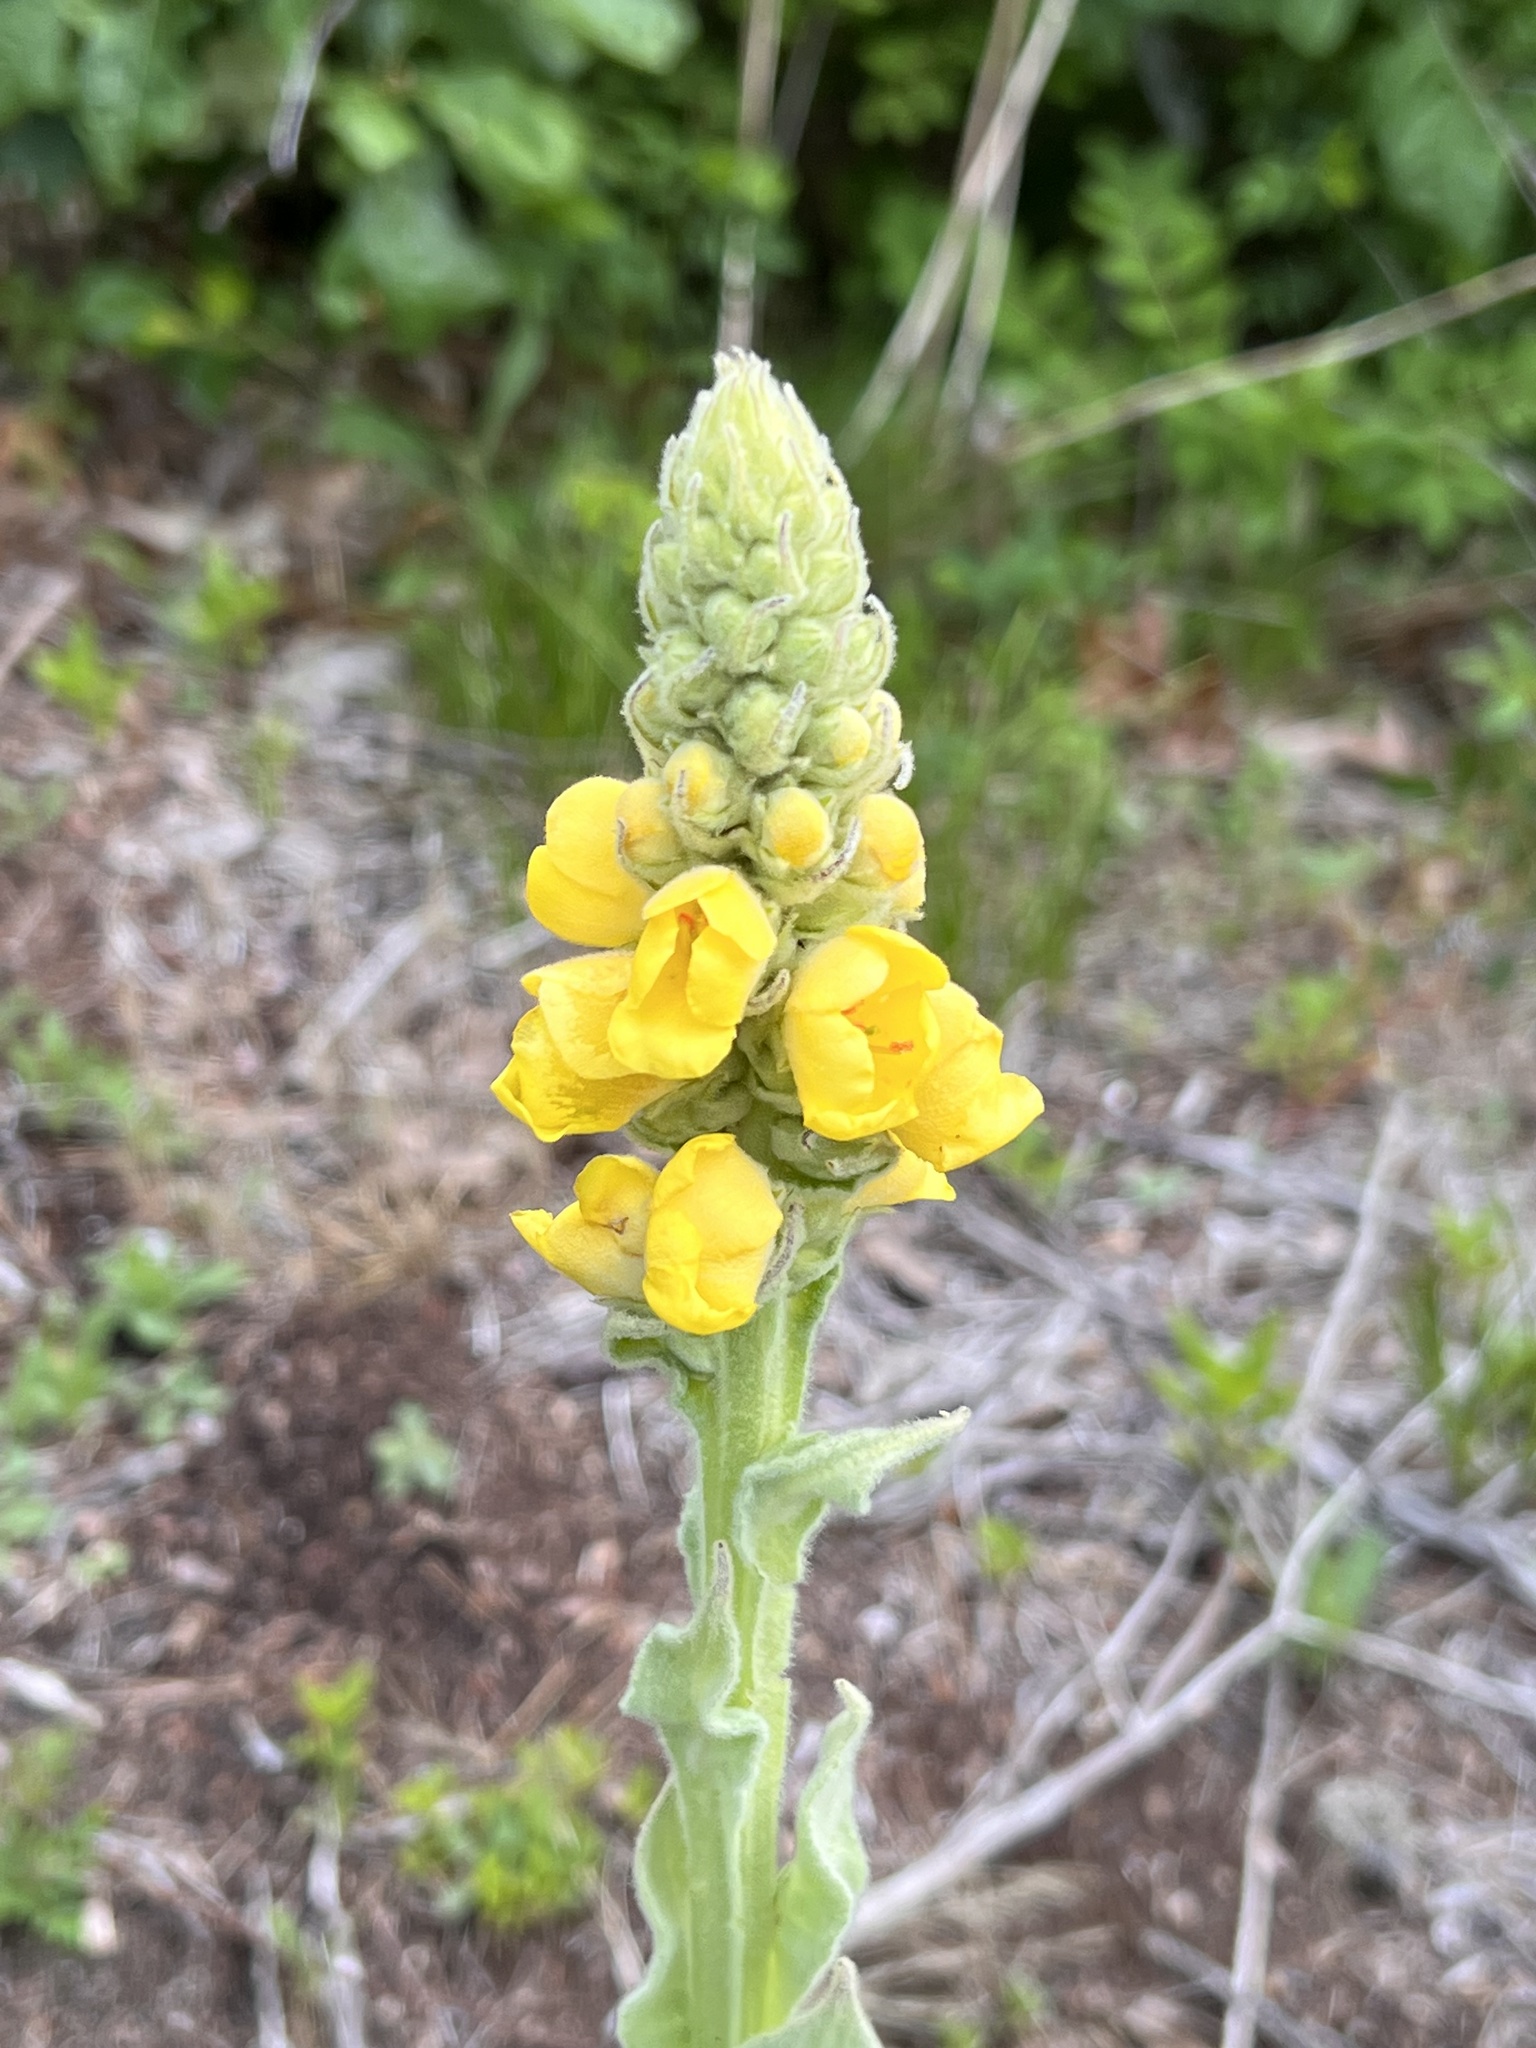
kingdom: Plantae
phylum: Tracheophyta
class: Magnoliopsida
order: Lamiales
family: Scrophulariaceae
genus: Verbascum
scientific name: Verbascum thapsus
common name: Common mullein
